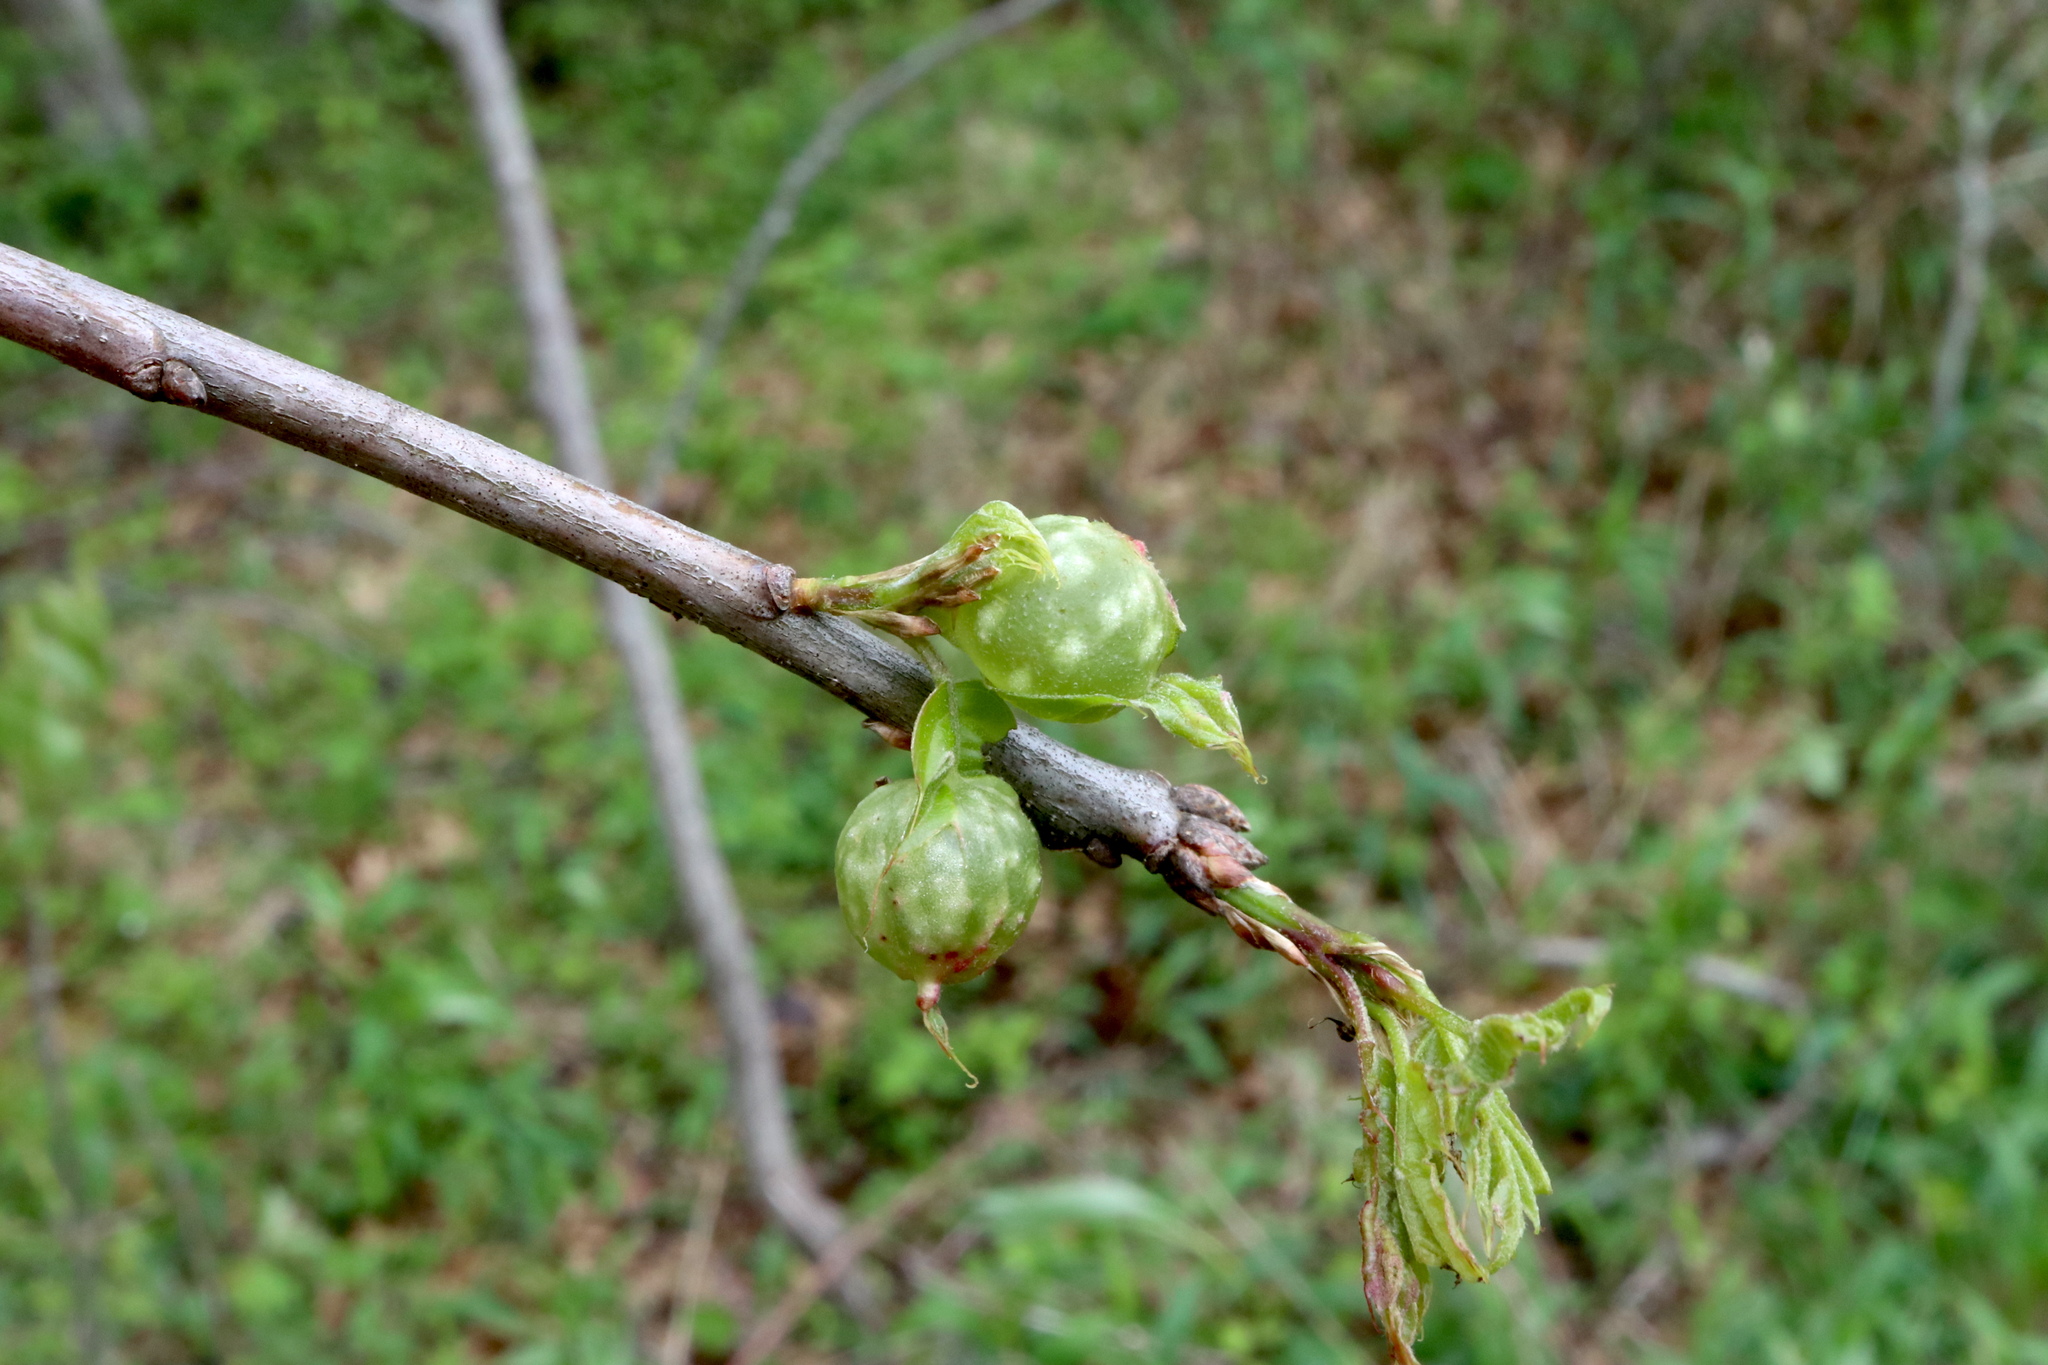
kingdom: Animalia
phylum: Arthropoda
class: Insecta
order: Hymenoptera
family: Cynipidae
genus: Dryocosmus
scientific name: Dryocosmus quercuspalustris
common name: Succulent oak gall wasp
